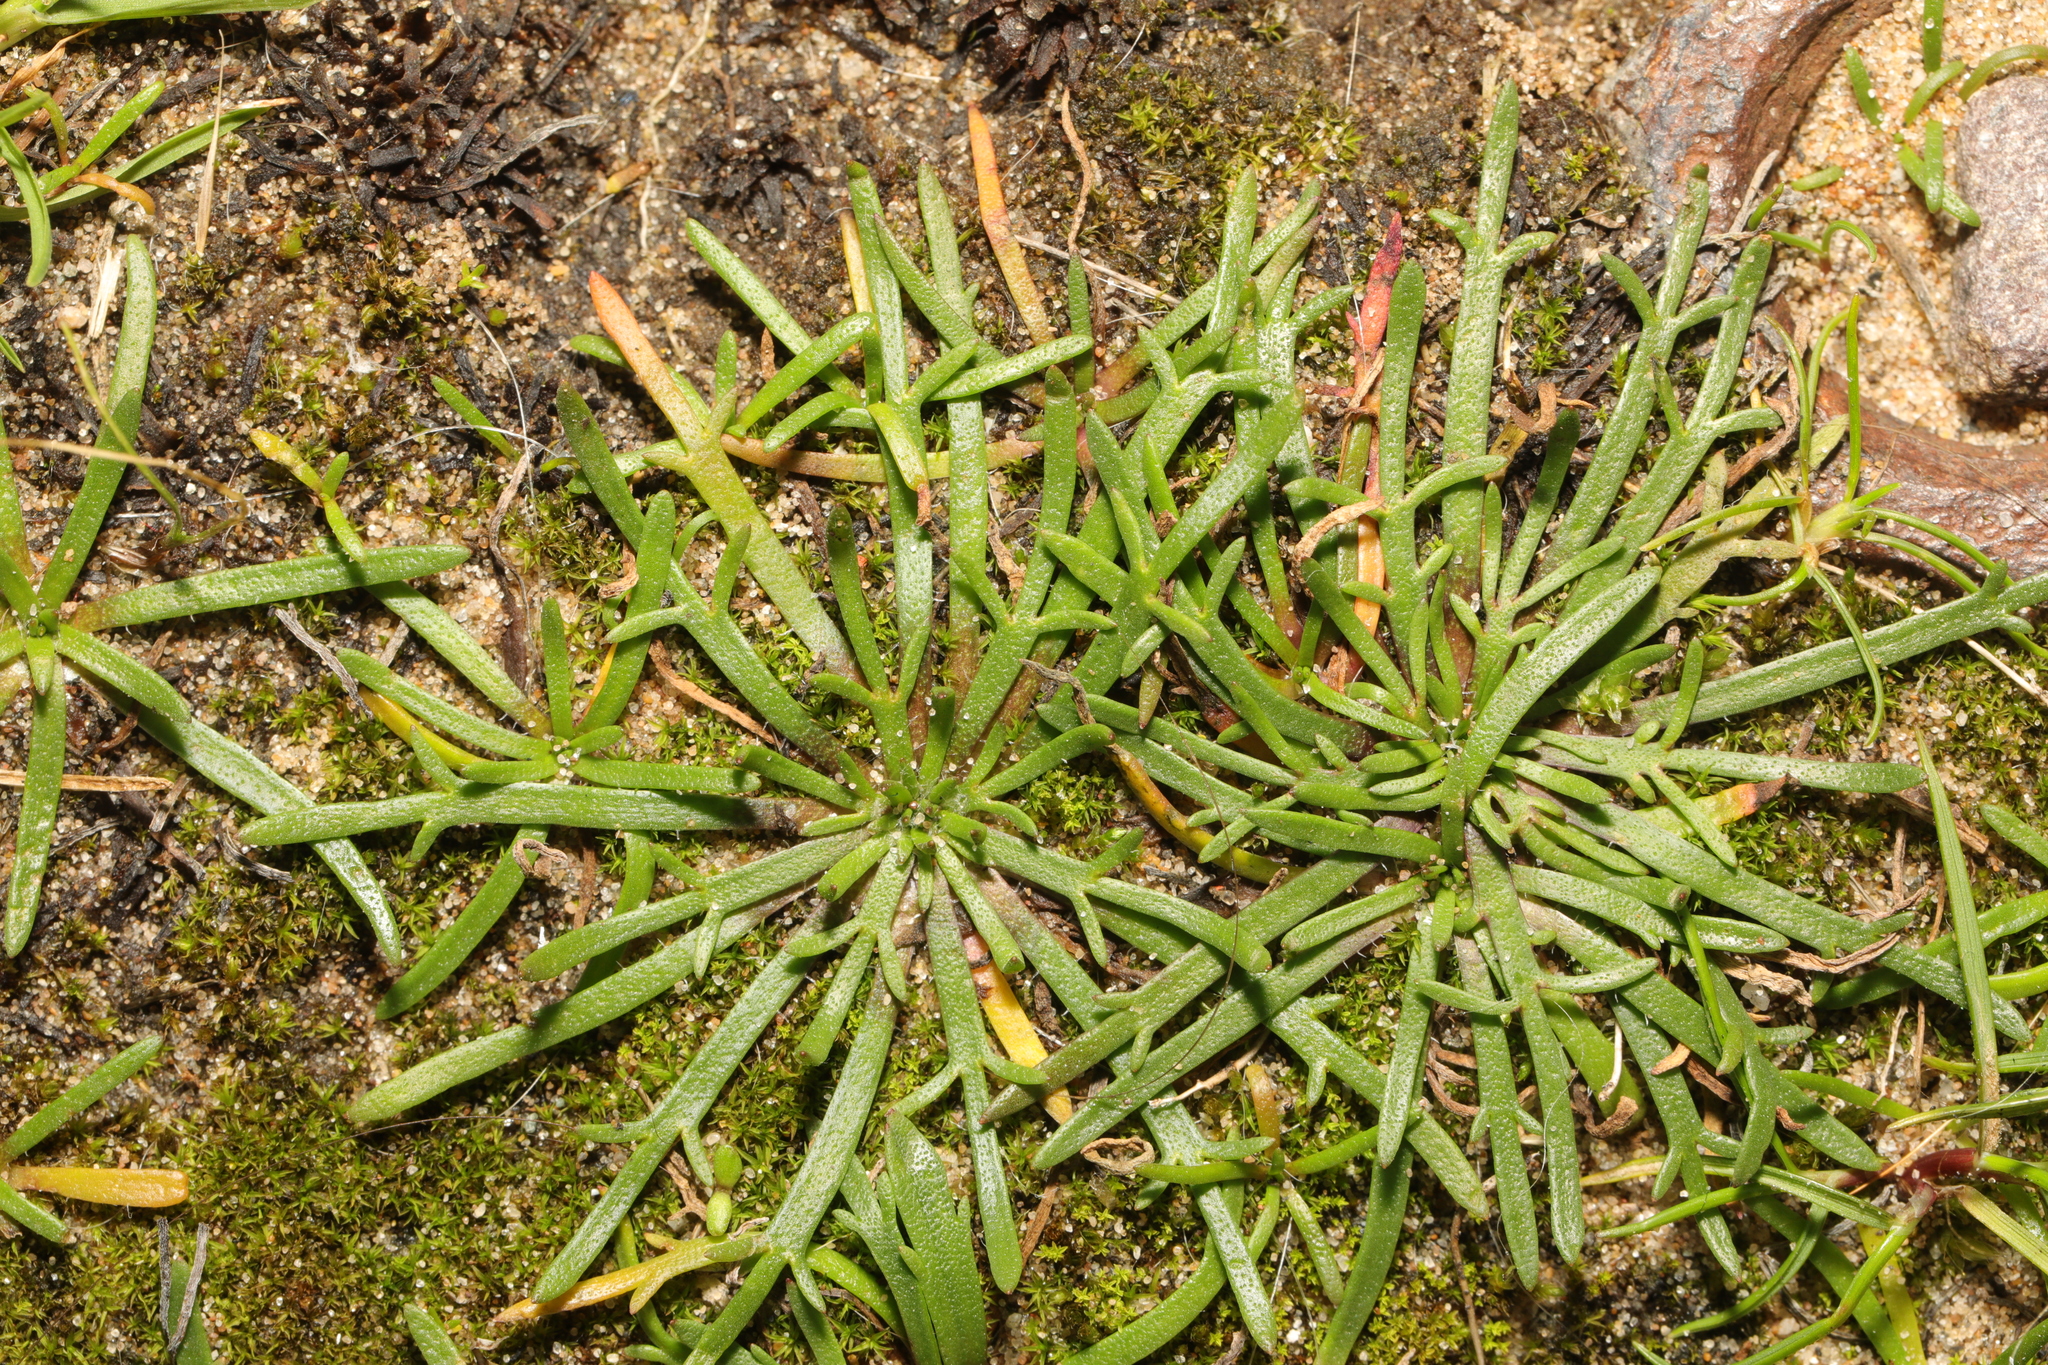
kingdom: Plantae
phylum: Tracheophyta
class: Magnoliopsida
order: Lamiales
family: Plantaginaceae
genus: Plantago
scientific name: Plantago coronopus
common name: Buck's-horn plantain
